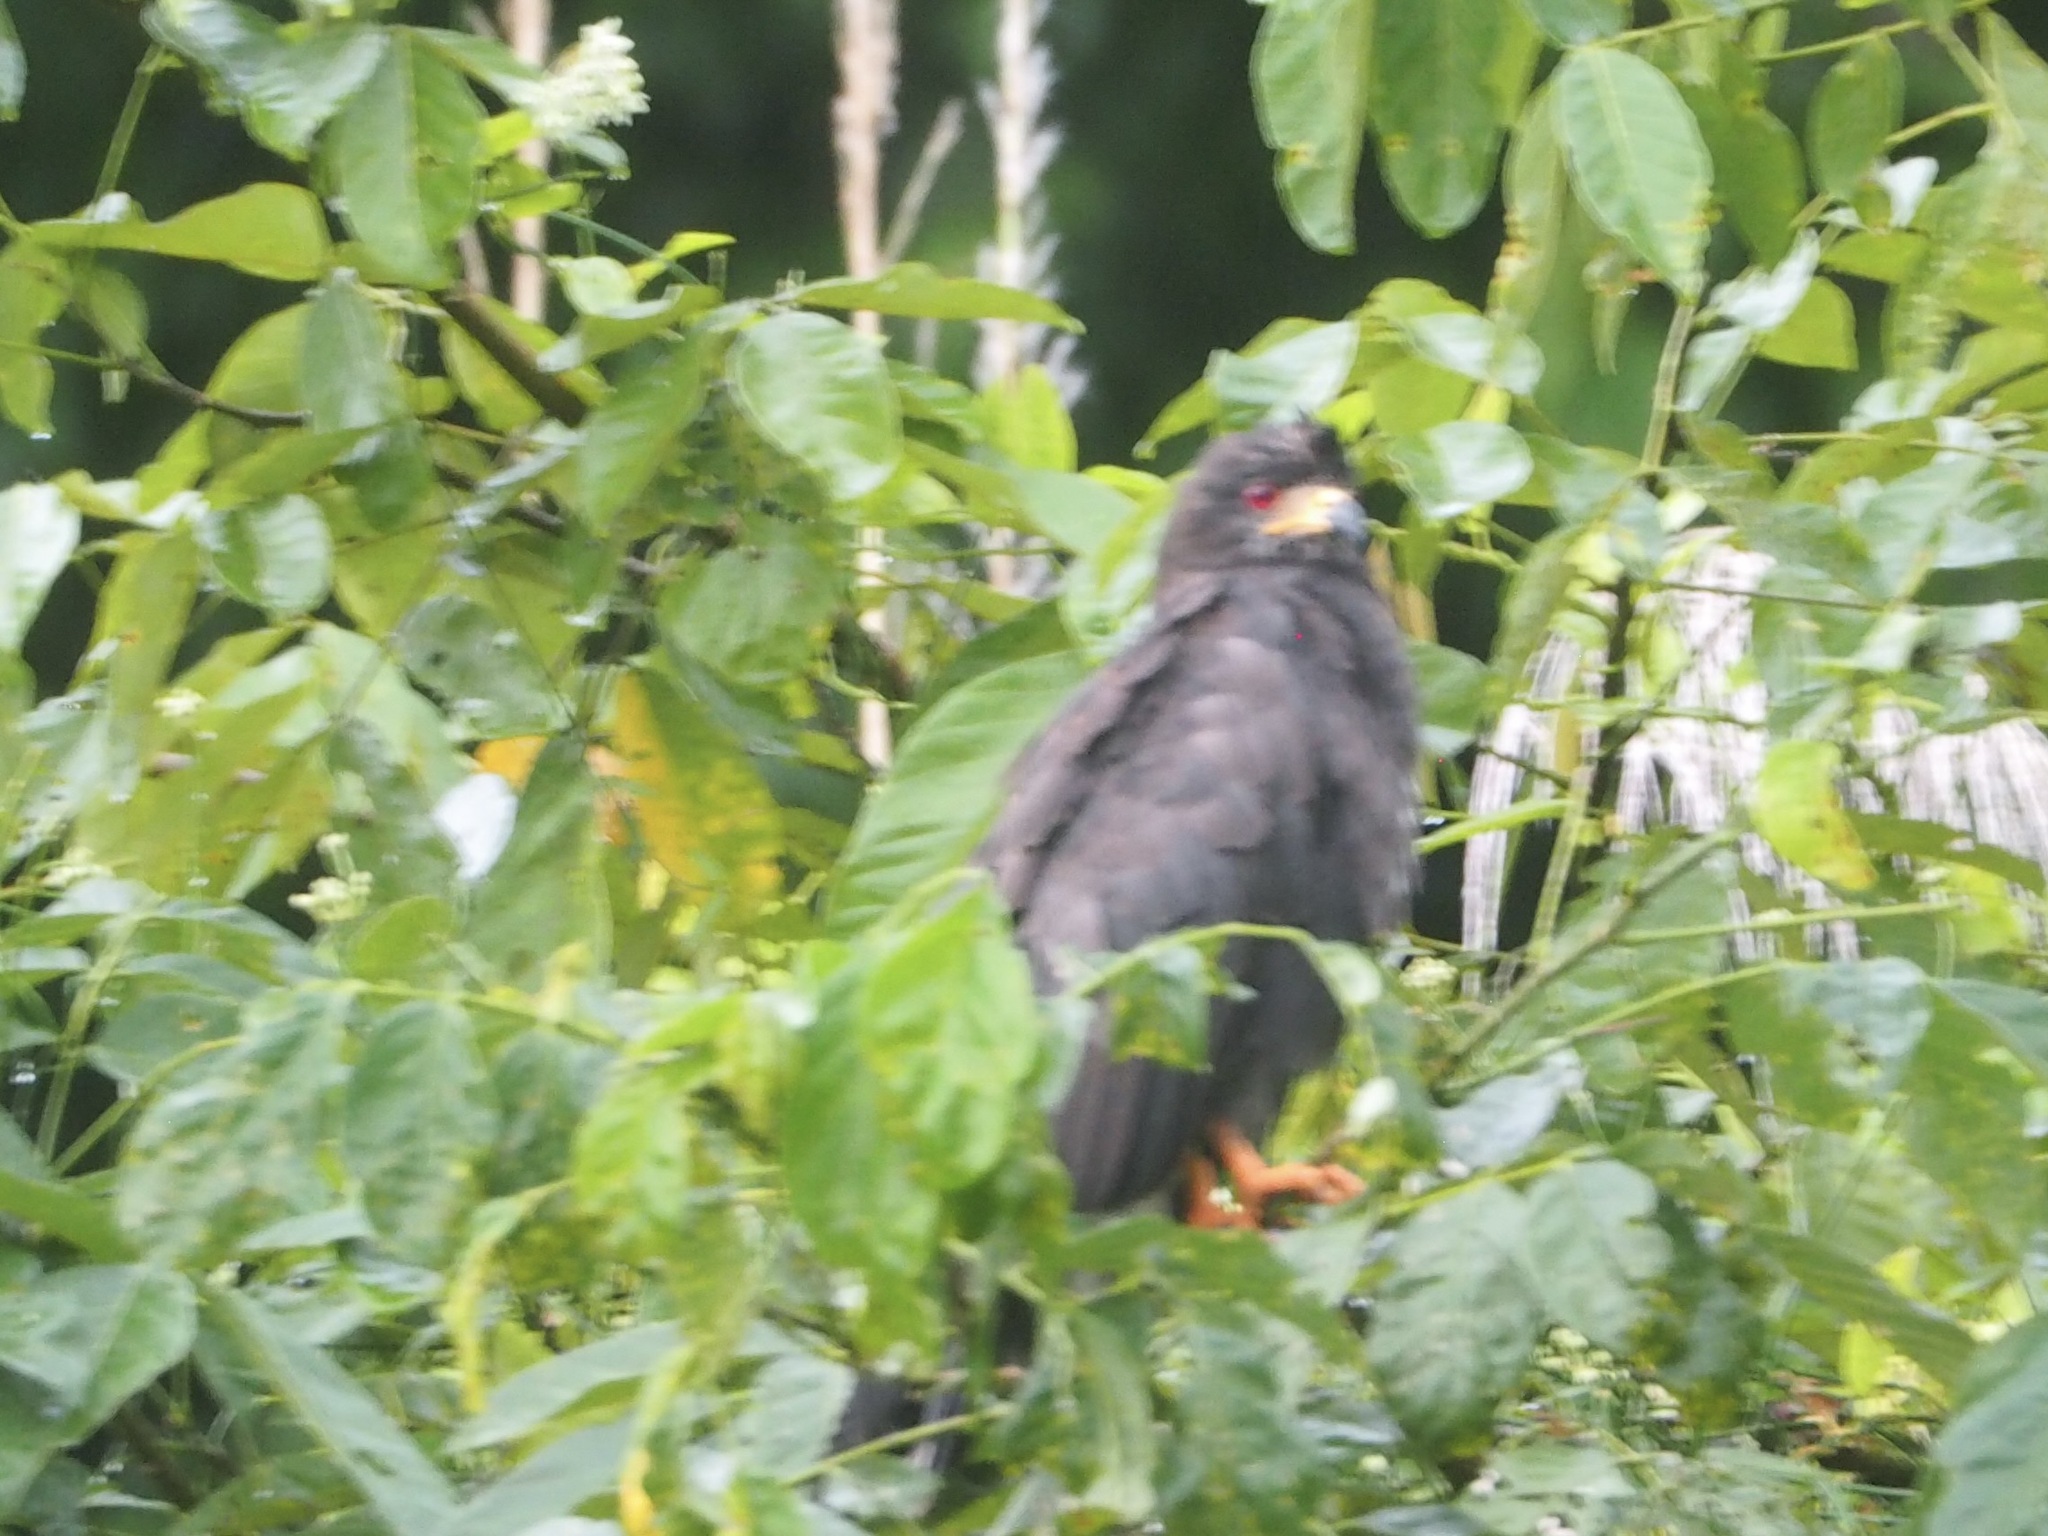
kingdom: Animalia
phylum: Chordata
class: Aves
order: Accipitriformes
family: Accipitridae
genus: Rostrhamus
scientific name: Rostrhamus sociabilis
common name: Snail kite
